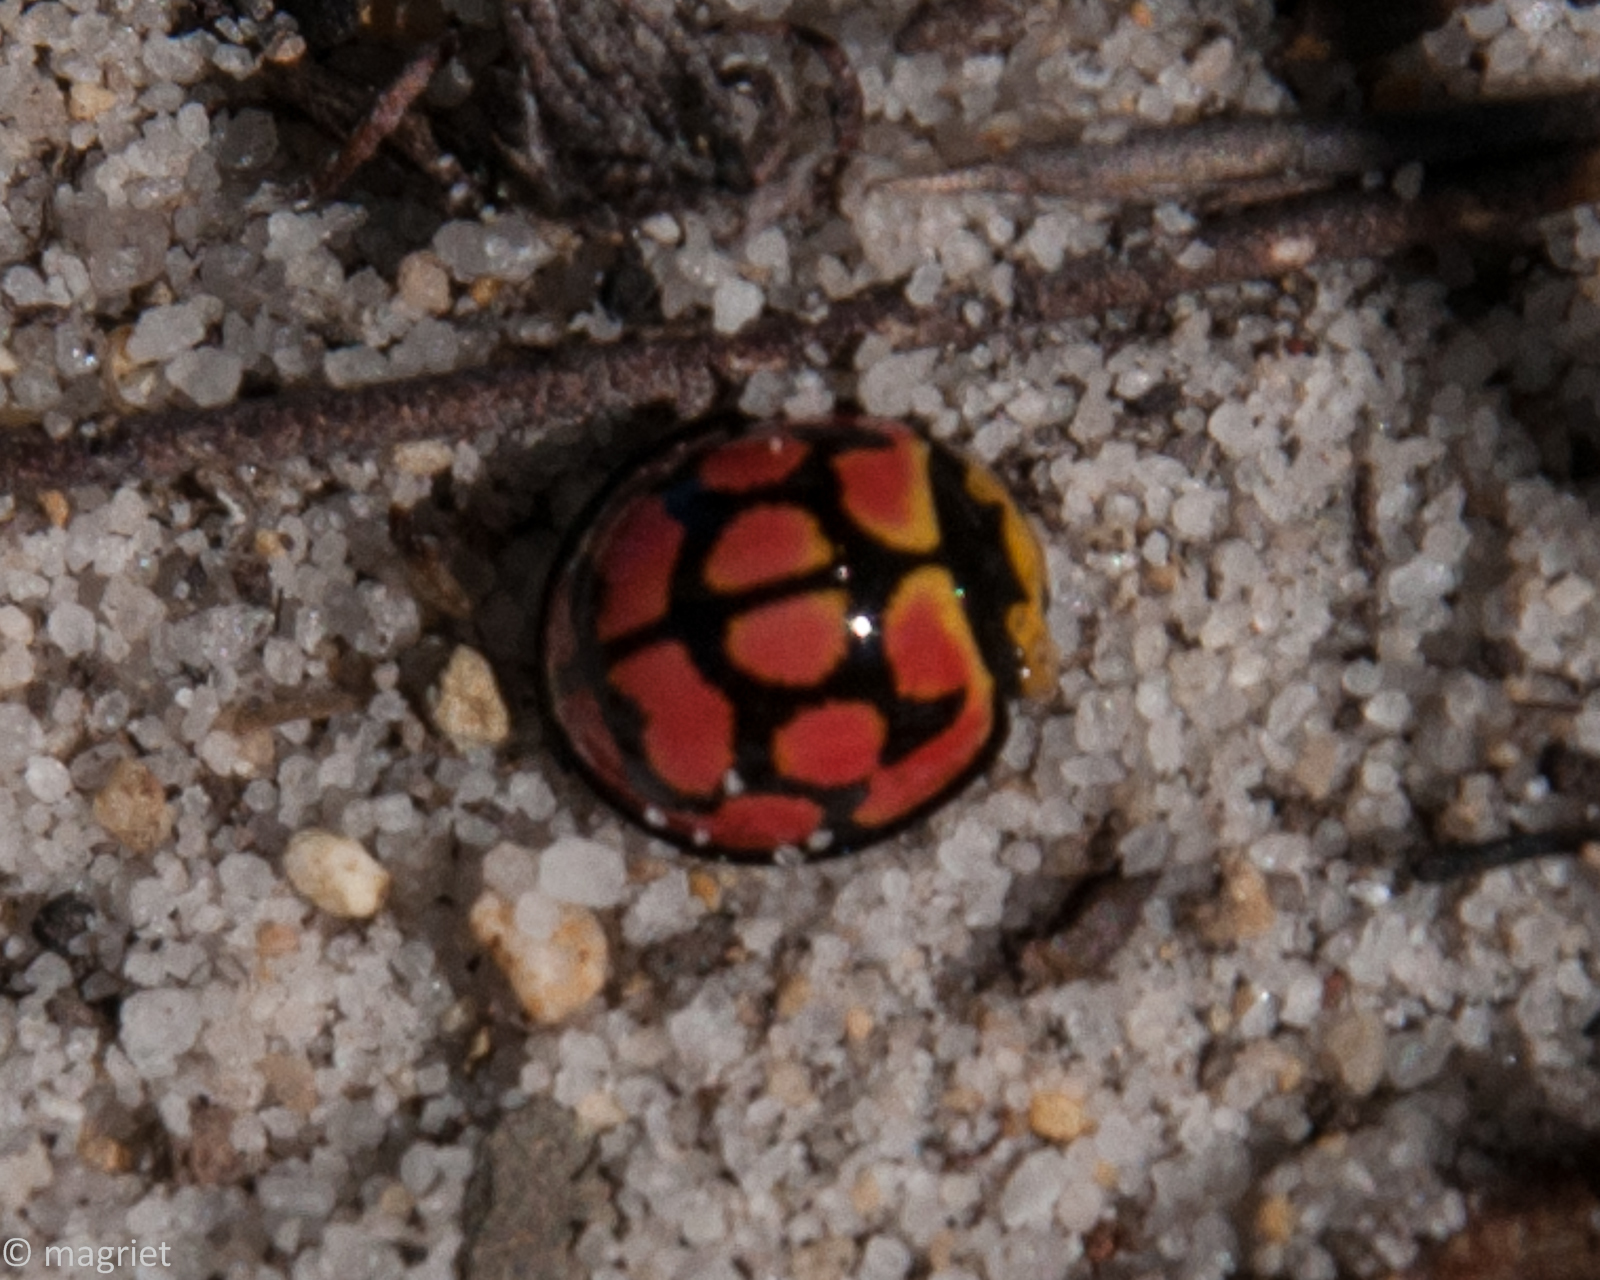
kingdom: Animalia
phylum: Arthropoda
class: Insecta
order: Coleoptera
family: Coccinellidae
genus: Cheilomenes
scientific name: Cheilomenes lunata
